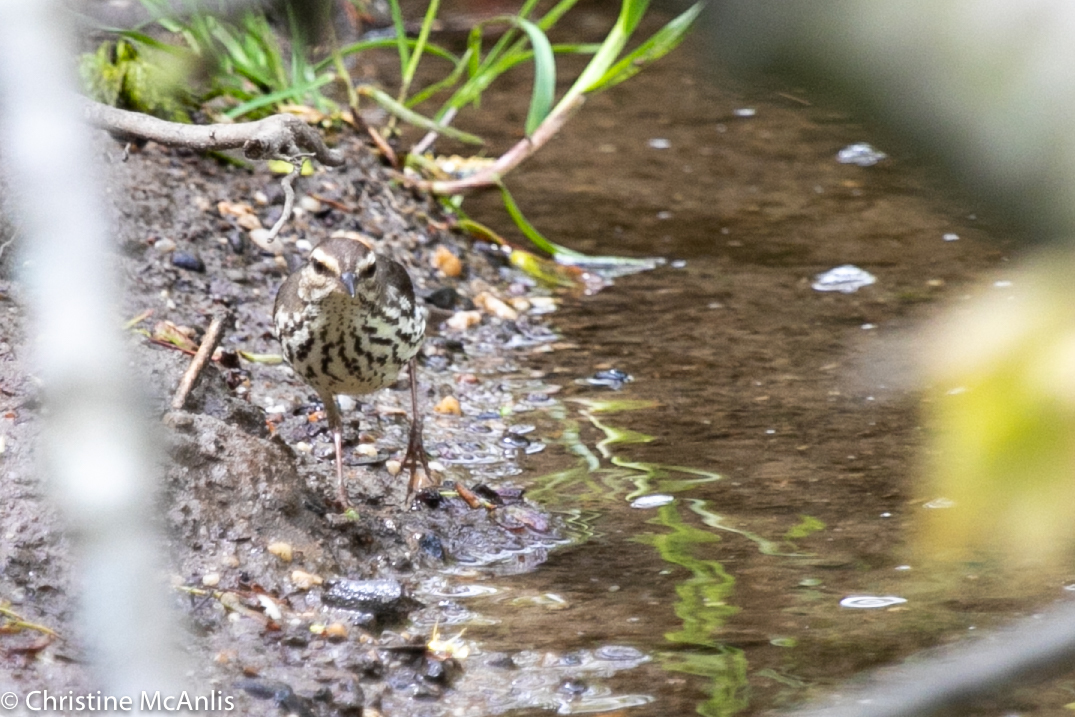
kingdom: Animalia
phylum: Chordata
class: Aves
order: Passeriformes
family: Parulidae
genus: Parkesia
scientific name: Parkesia noveboracensis
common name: Northern waterthrush
